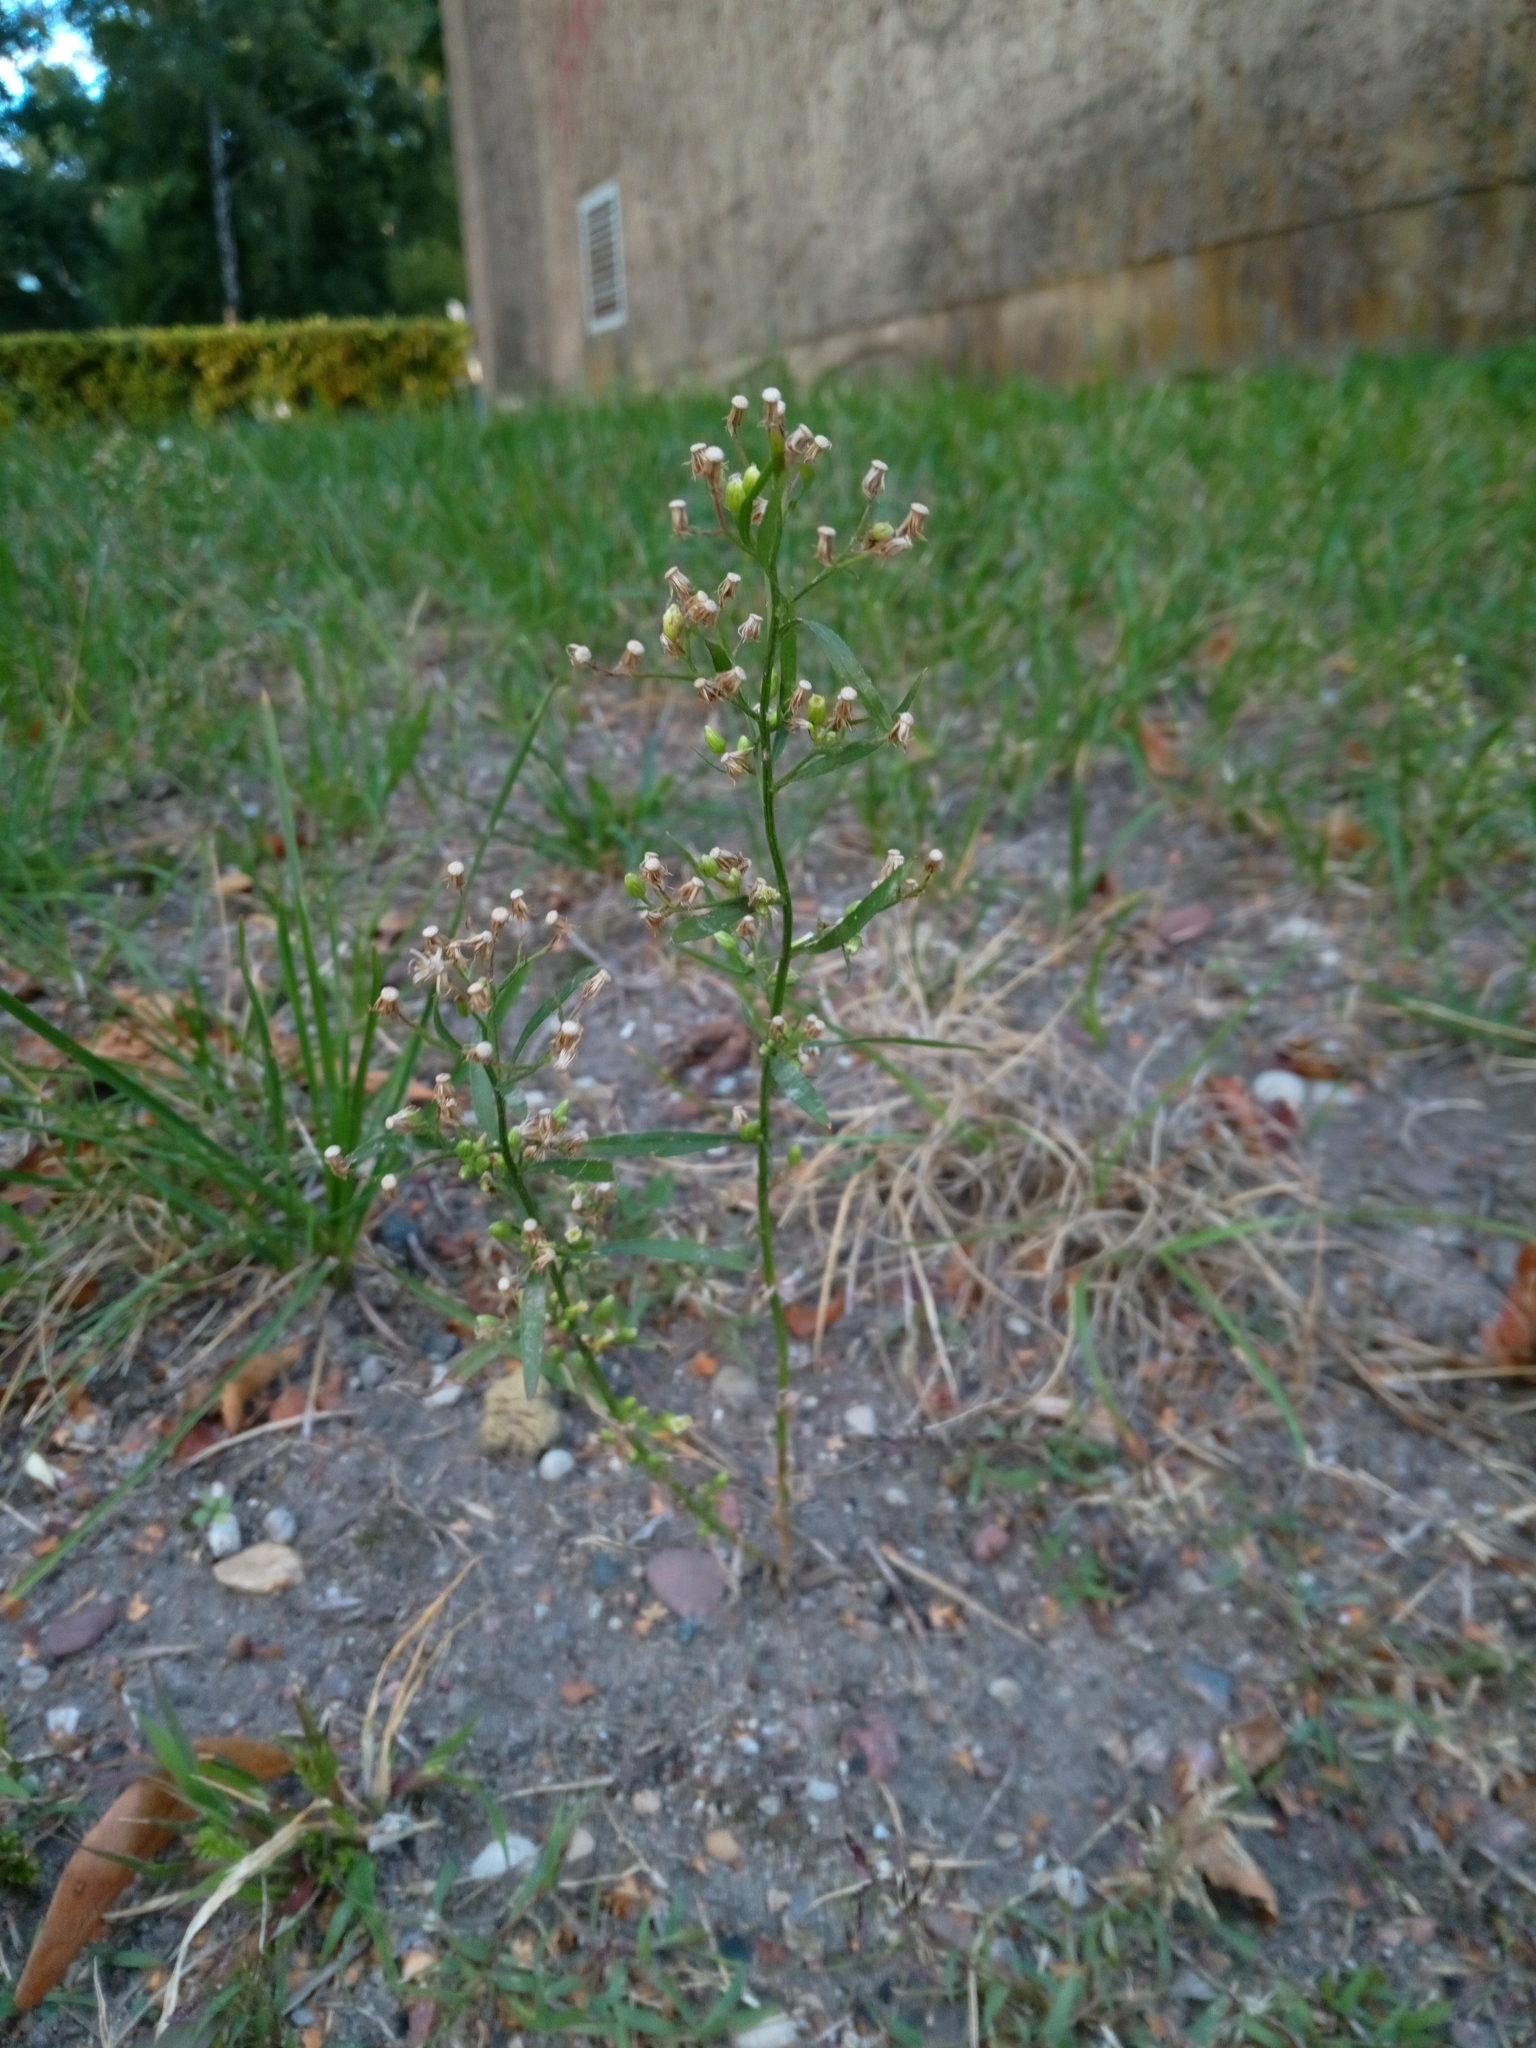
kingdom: Plantae
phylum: Tracheophyta
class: Magnoliopsida
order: Asterales
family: Asteraceae
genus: Erigeron
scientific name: Erigeron canadensis
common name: Canadian fleabane
